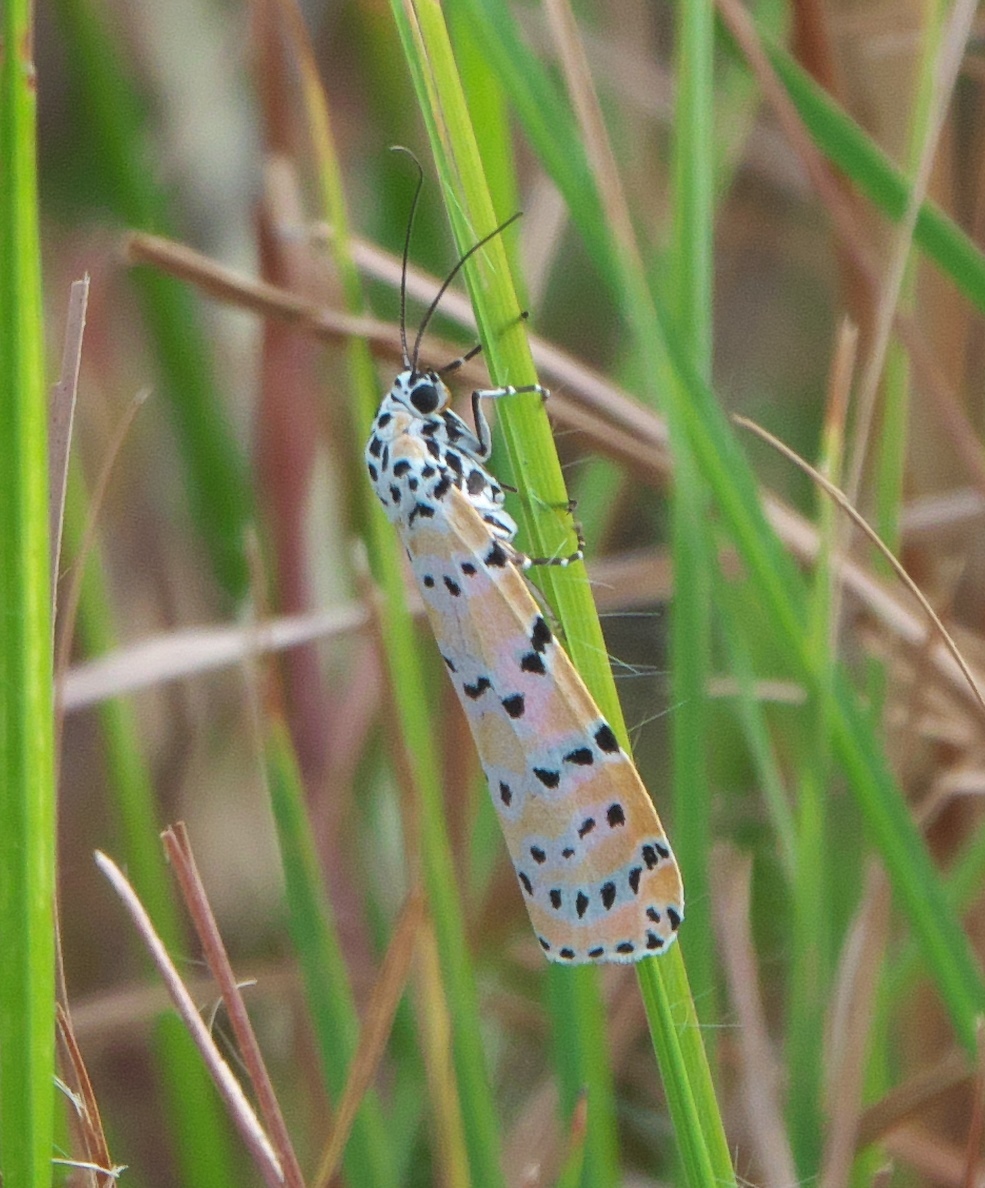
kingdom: Animalia
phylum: Arthropoda
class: Insecta
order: Lepidoptera
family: Erebidae
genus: Utetheisa
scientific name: Utetheisa ornatrix
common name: Beautiful utetheisa
